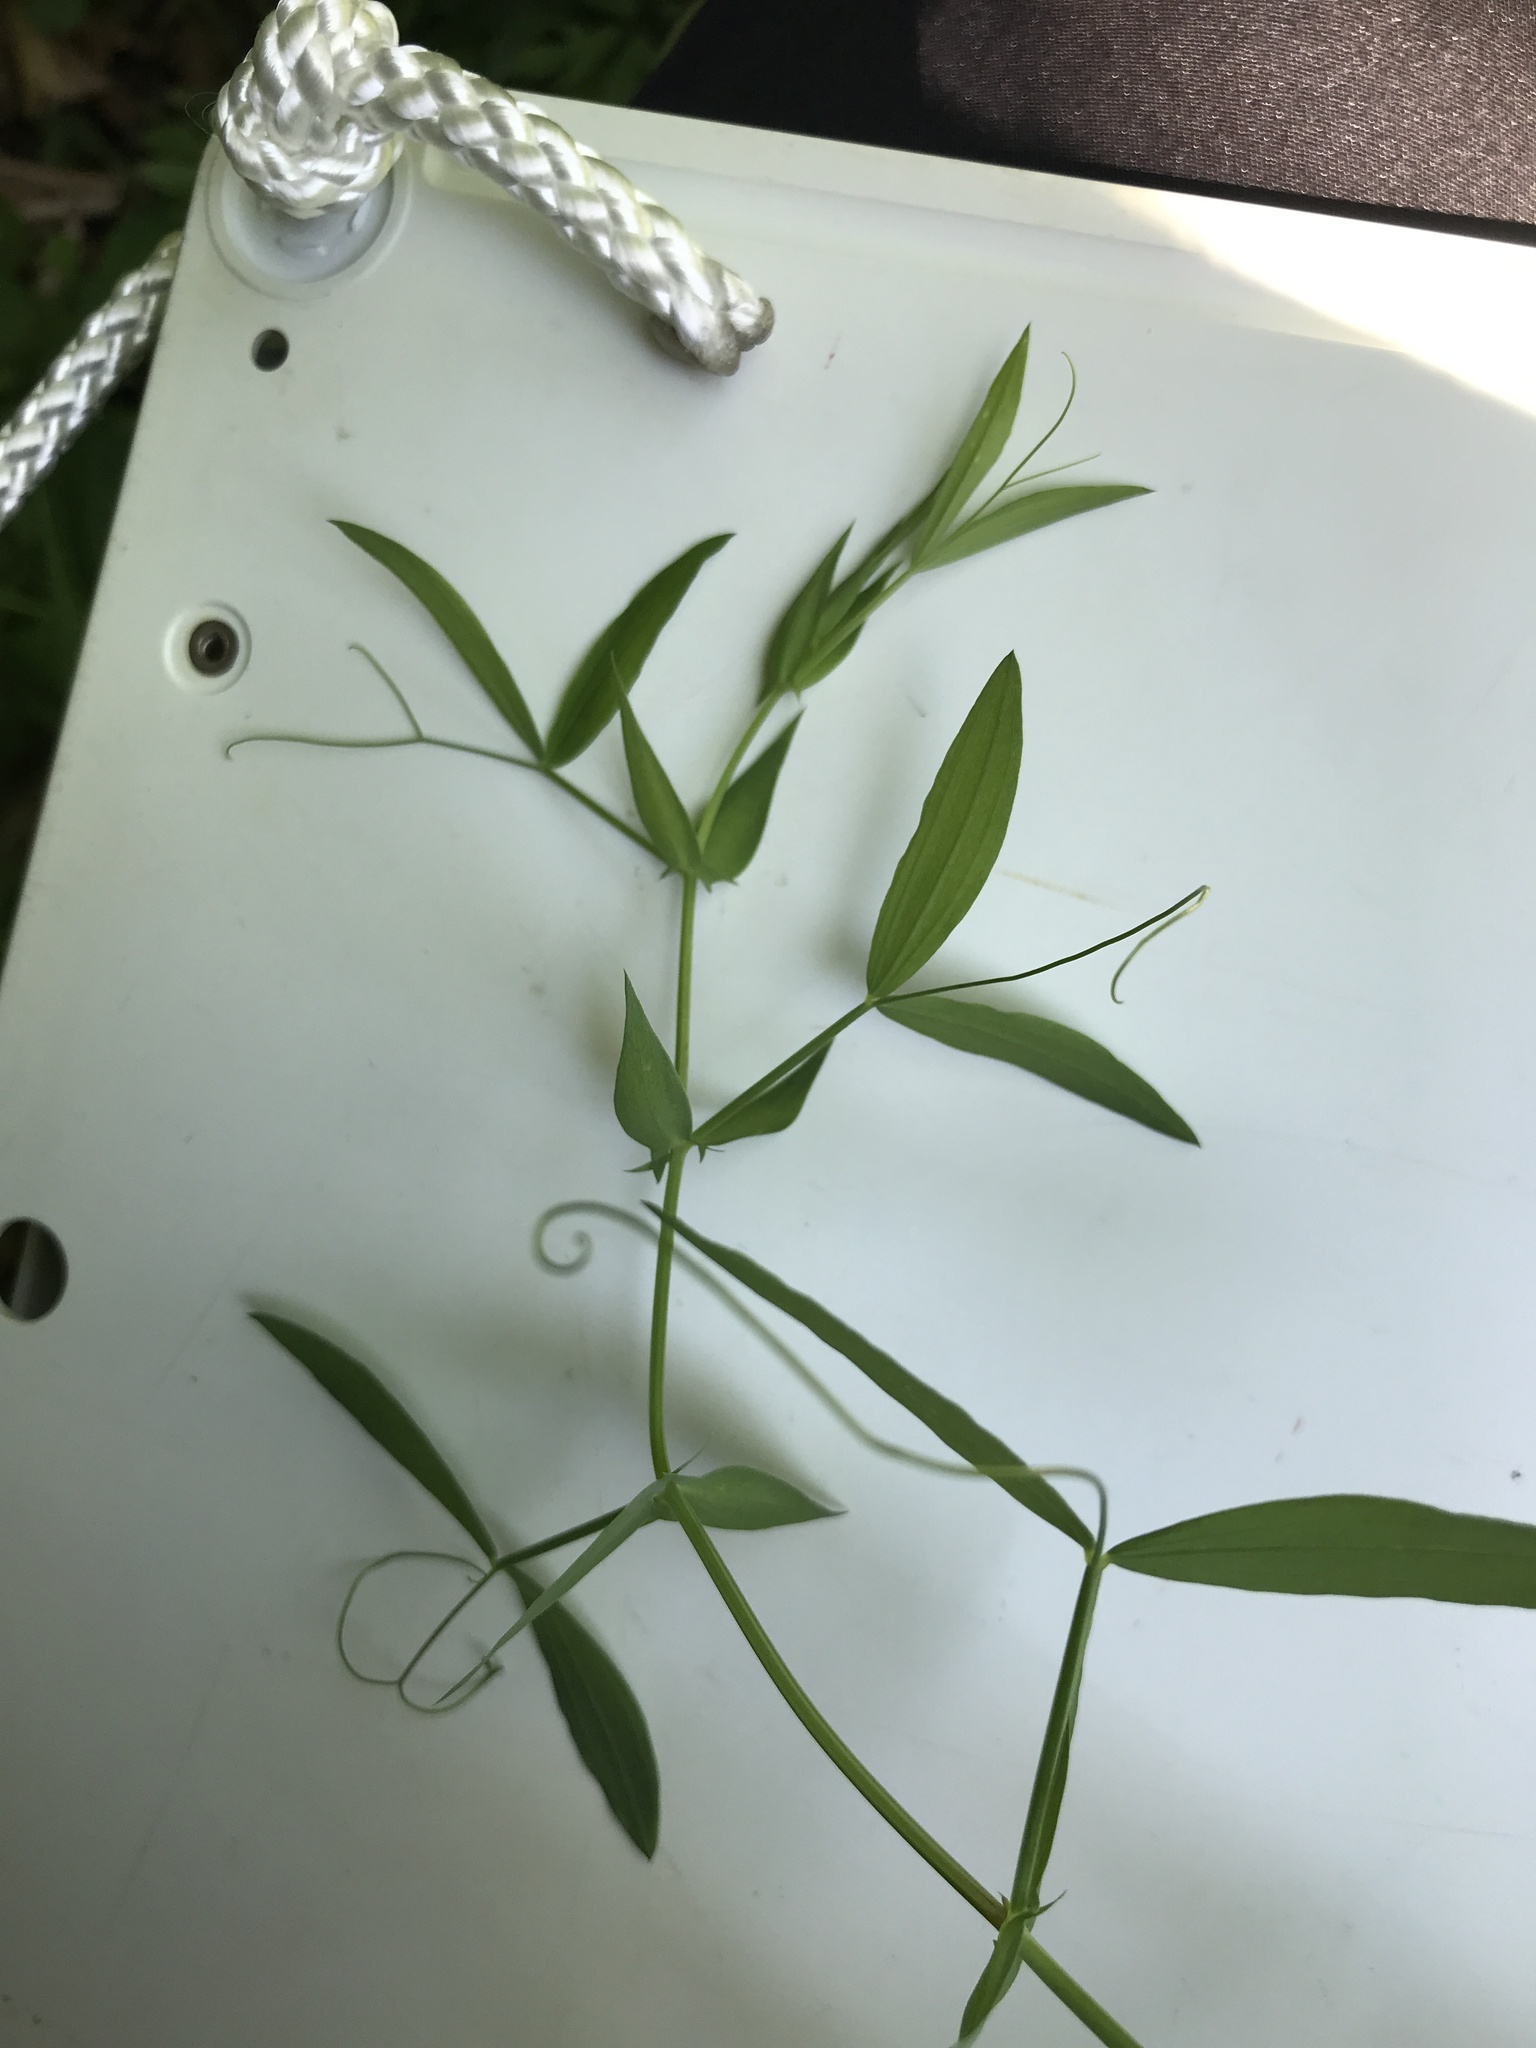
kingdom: Plantae
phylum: Tracheophyta
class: Magnoliopsida
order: Fabales
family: Fabaceae
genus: Lathyrus
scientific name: Lathyrus pratensis
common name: Meadow vetchling
